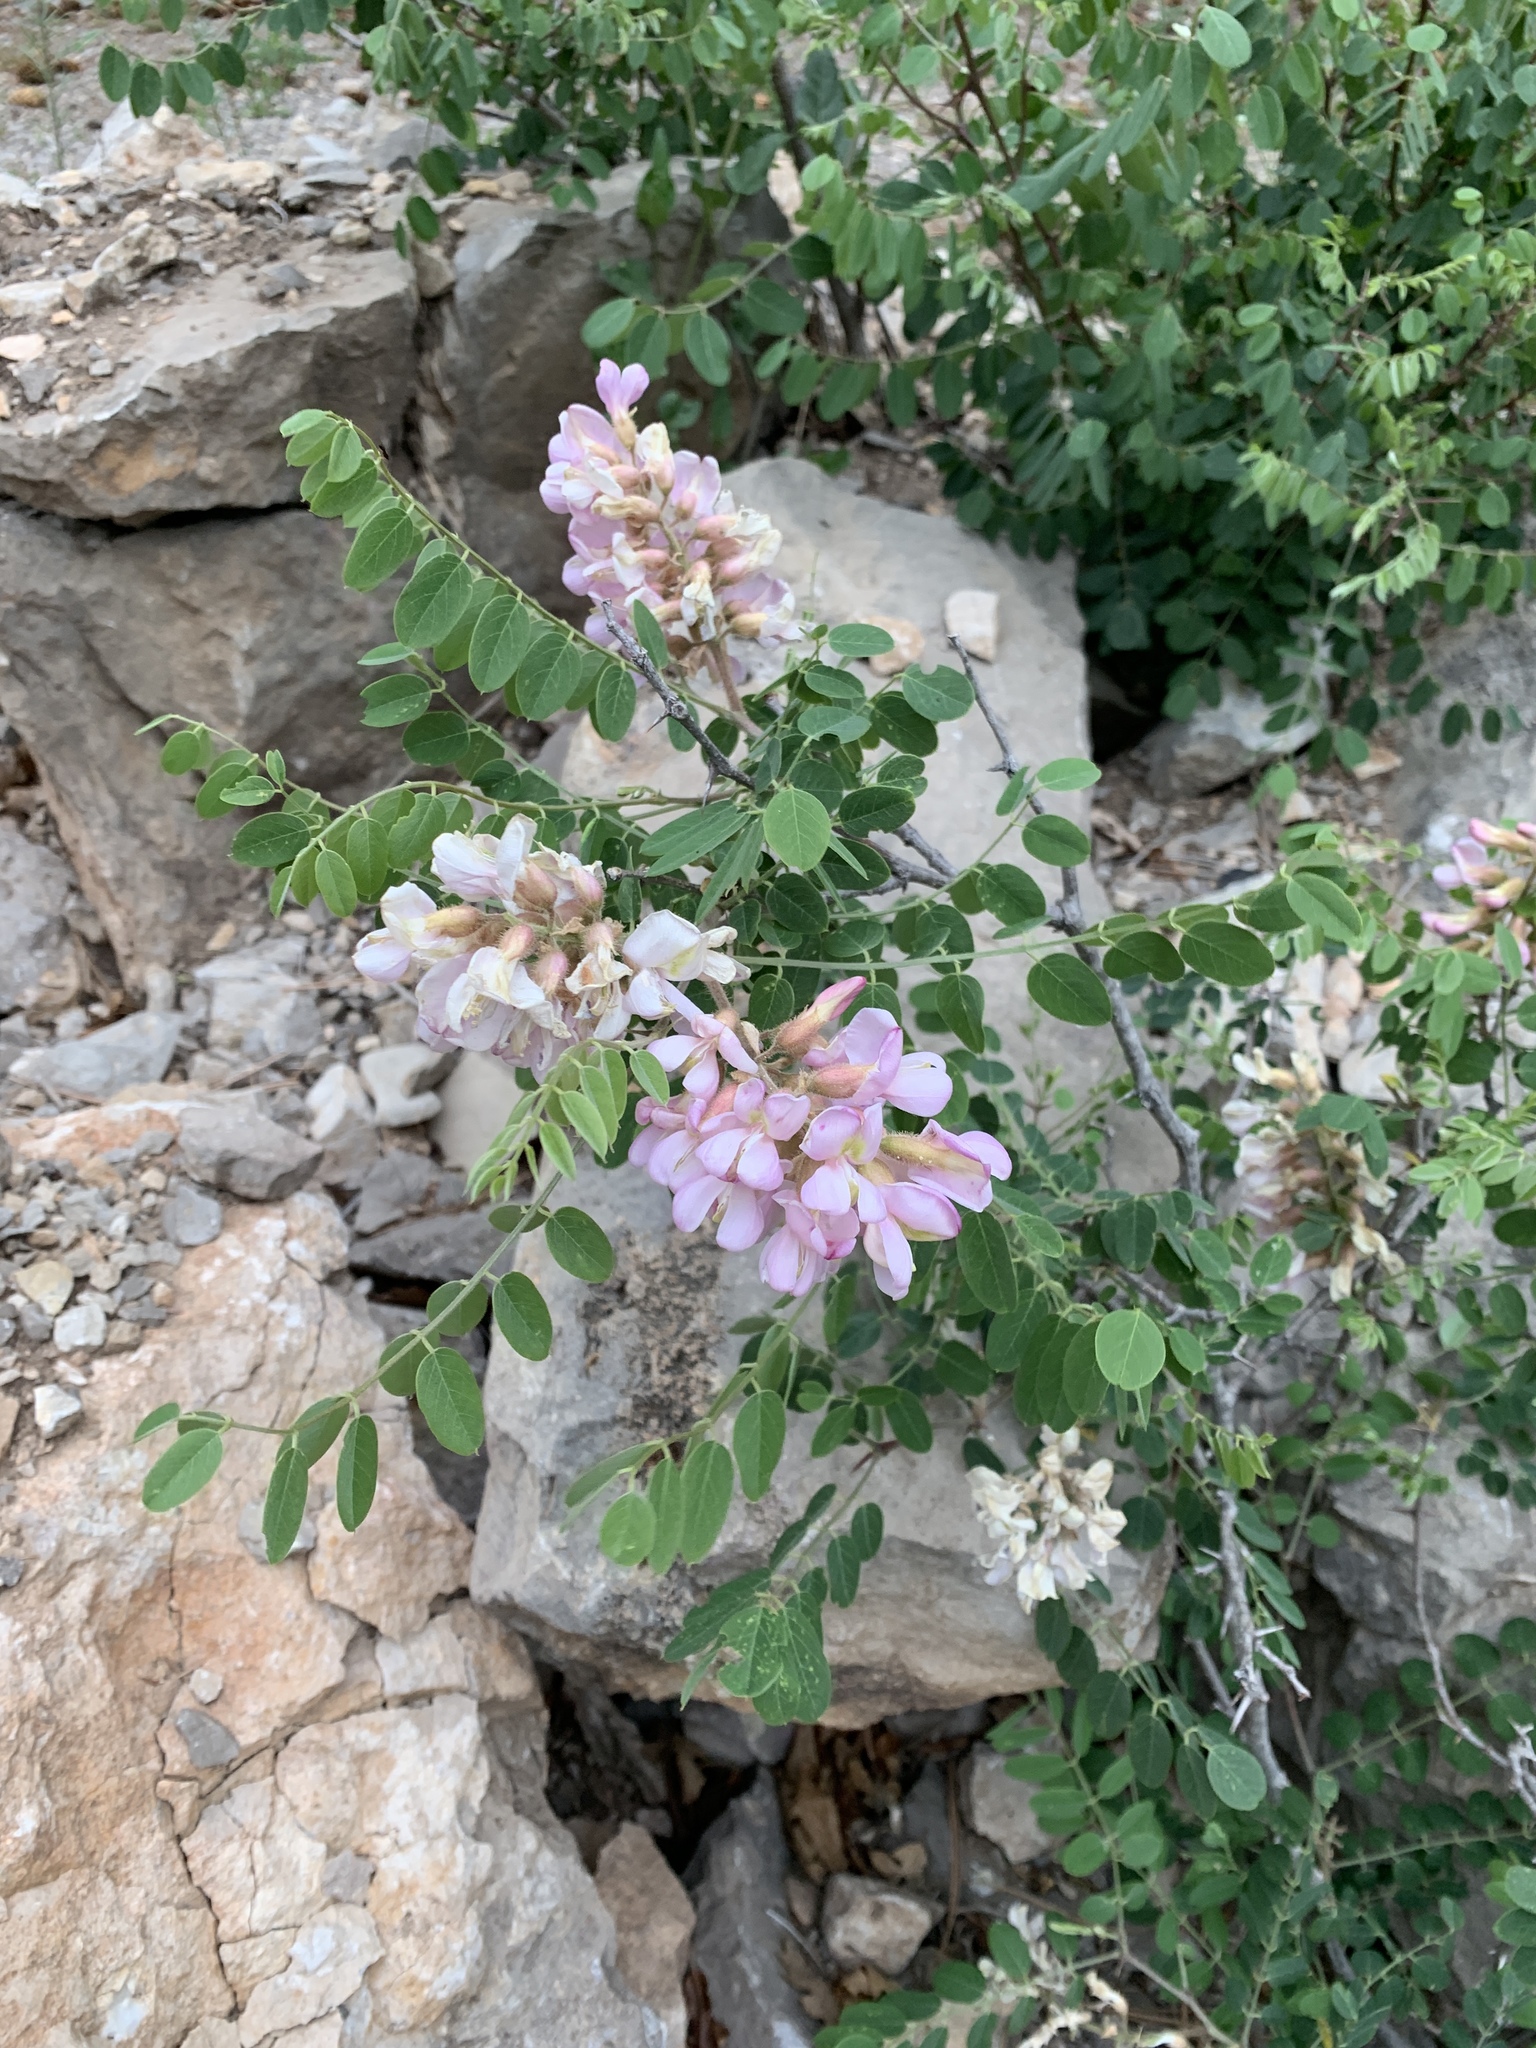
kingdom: Plantae
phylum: Tracheophyta
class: Magnoliopsida
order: Fabales
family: Fabaceae
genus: Robinia
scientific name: Robinia neomexicana
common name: New mexico locust
